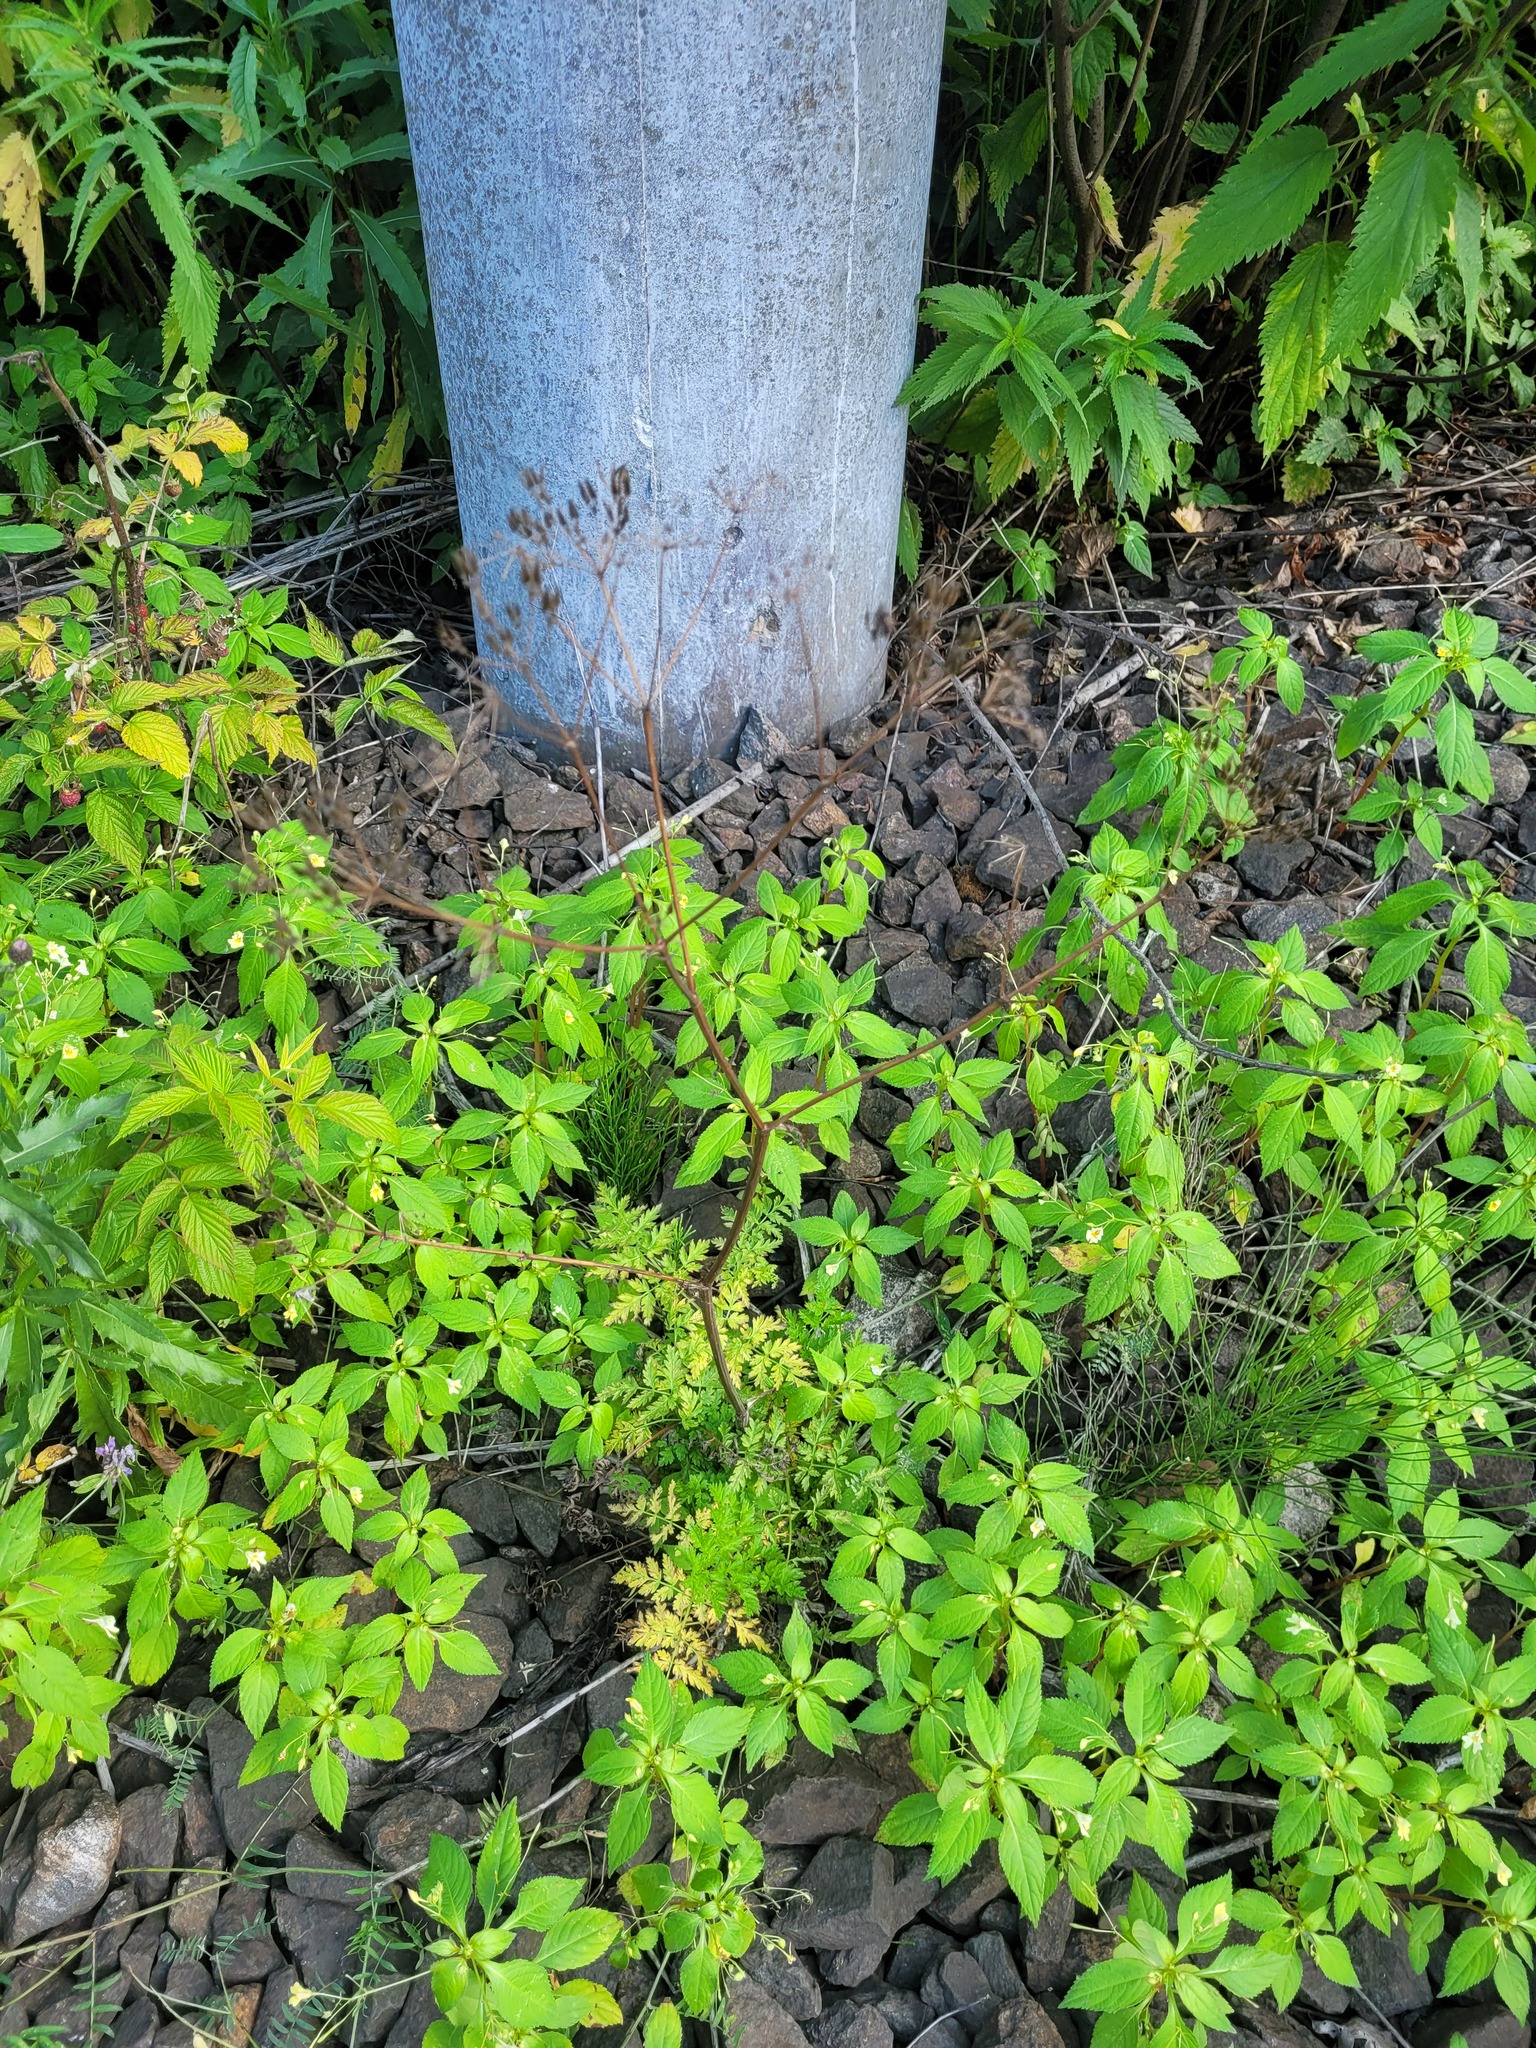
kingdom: Plantae
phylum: Tracheophyta
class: Magnoliopsida
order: Apiales
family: Apiaceae
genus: Anthriscus
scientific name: Anthriscus sylvestris
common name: Cow parsley
